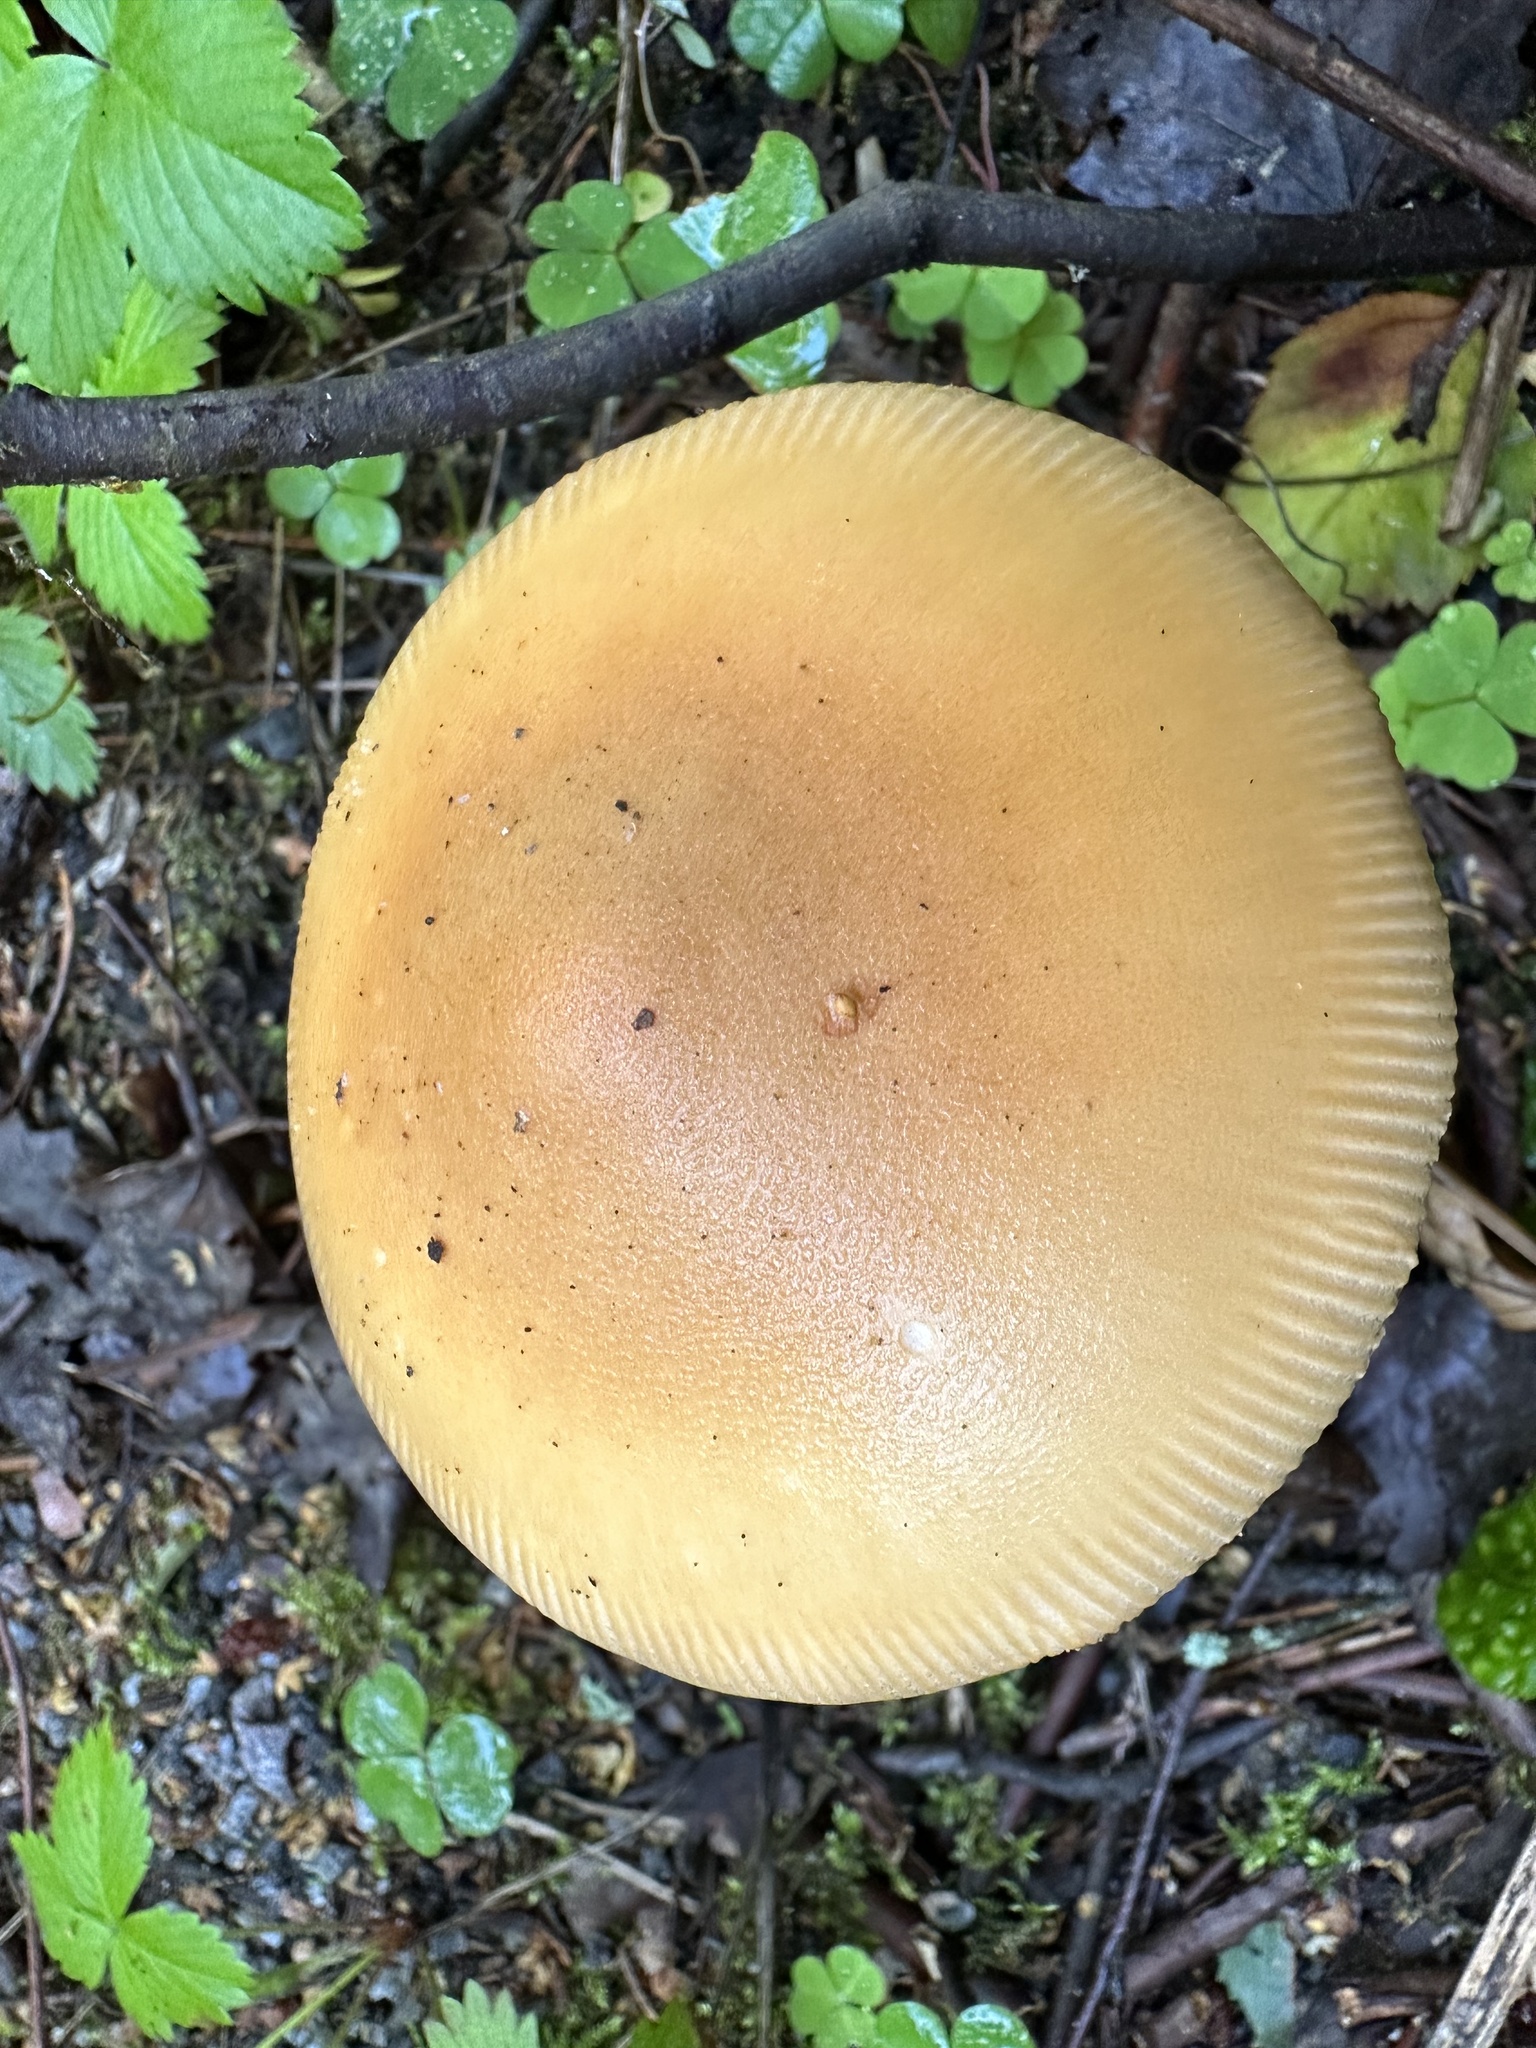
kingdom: Fungi
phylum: Basidiomycota
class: Agaricomycetes
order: Agaricales
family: Amanitaceae
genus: Amanita
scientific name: Amanita crocea
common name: Orange grisette
